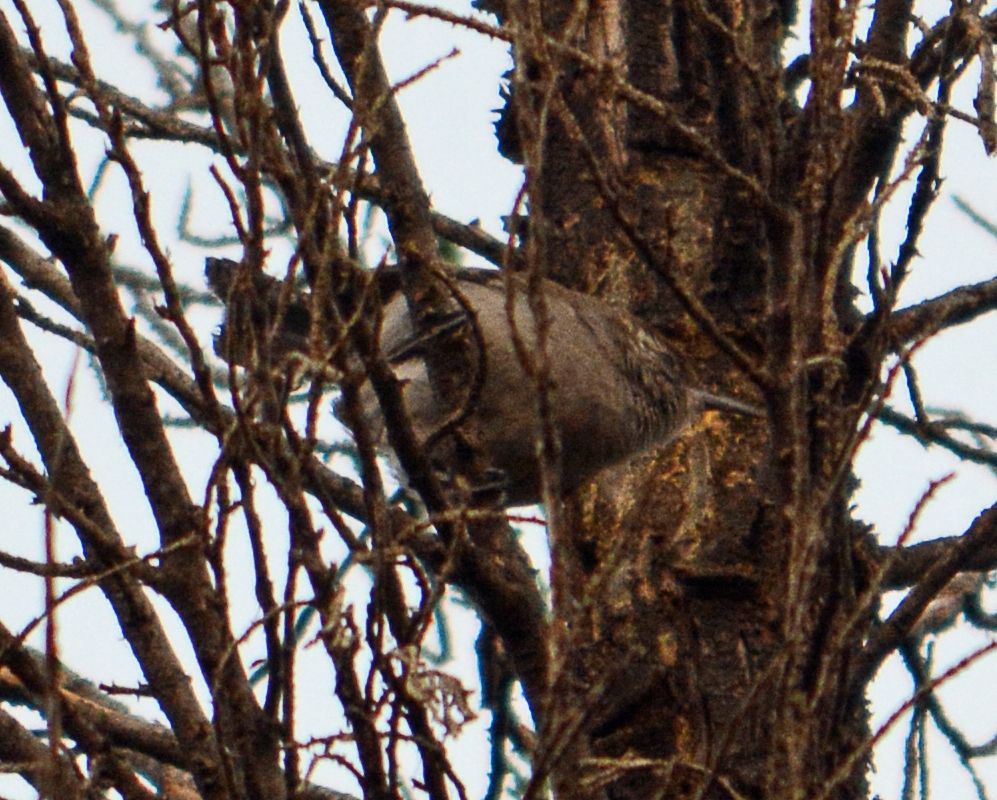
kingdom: Animalia
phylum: Chordata
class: Aves
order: Passeriformes
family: Troglodytidae
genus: Thryomanes
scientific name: Thryomanes bewickii
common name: Bewick's wren
